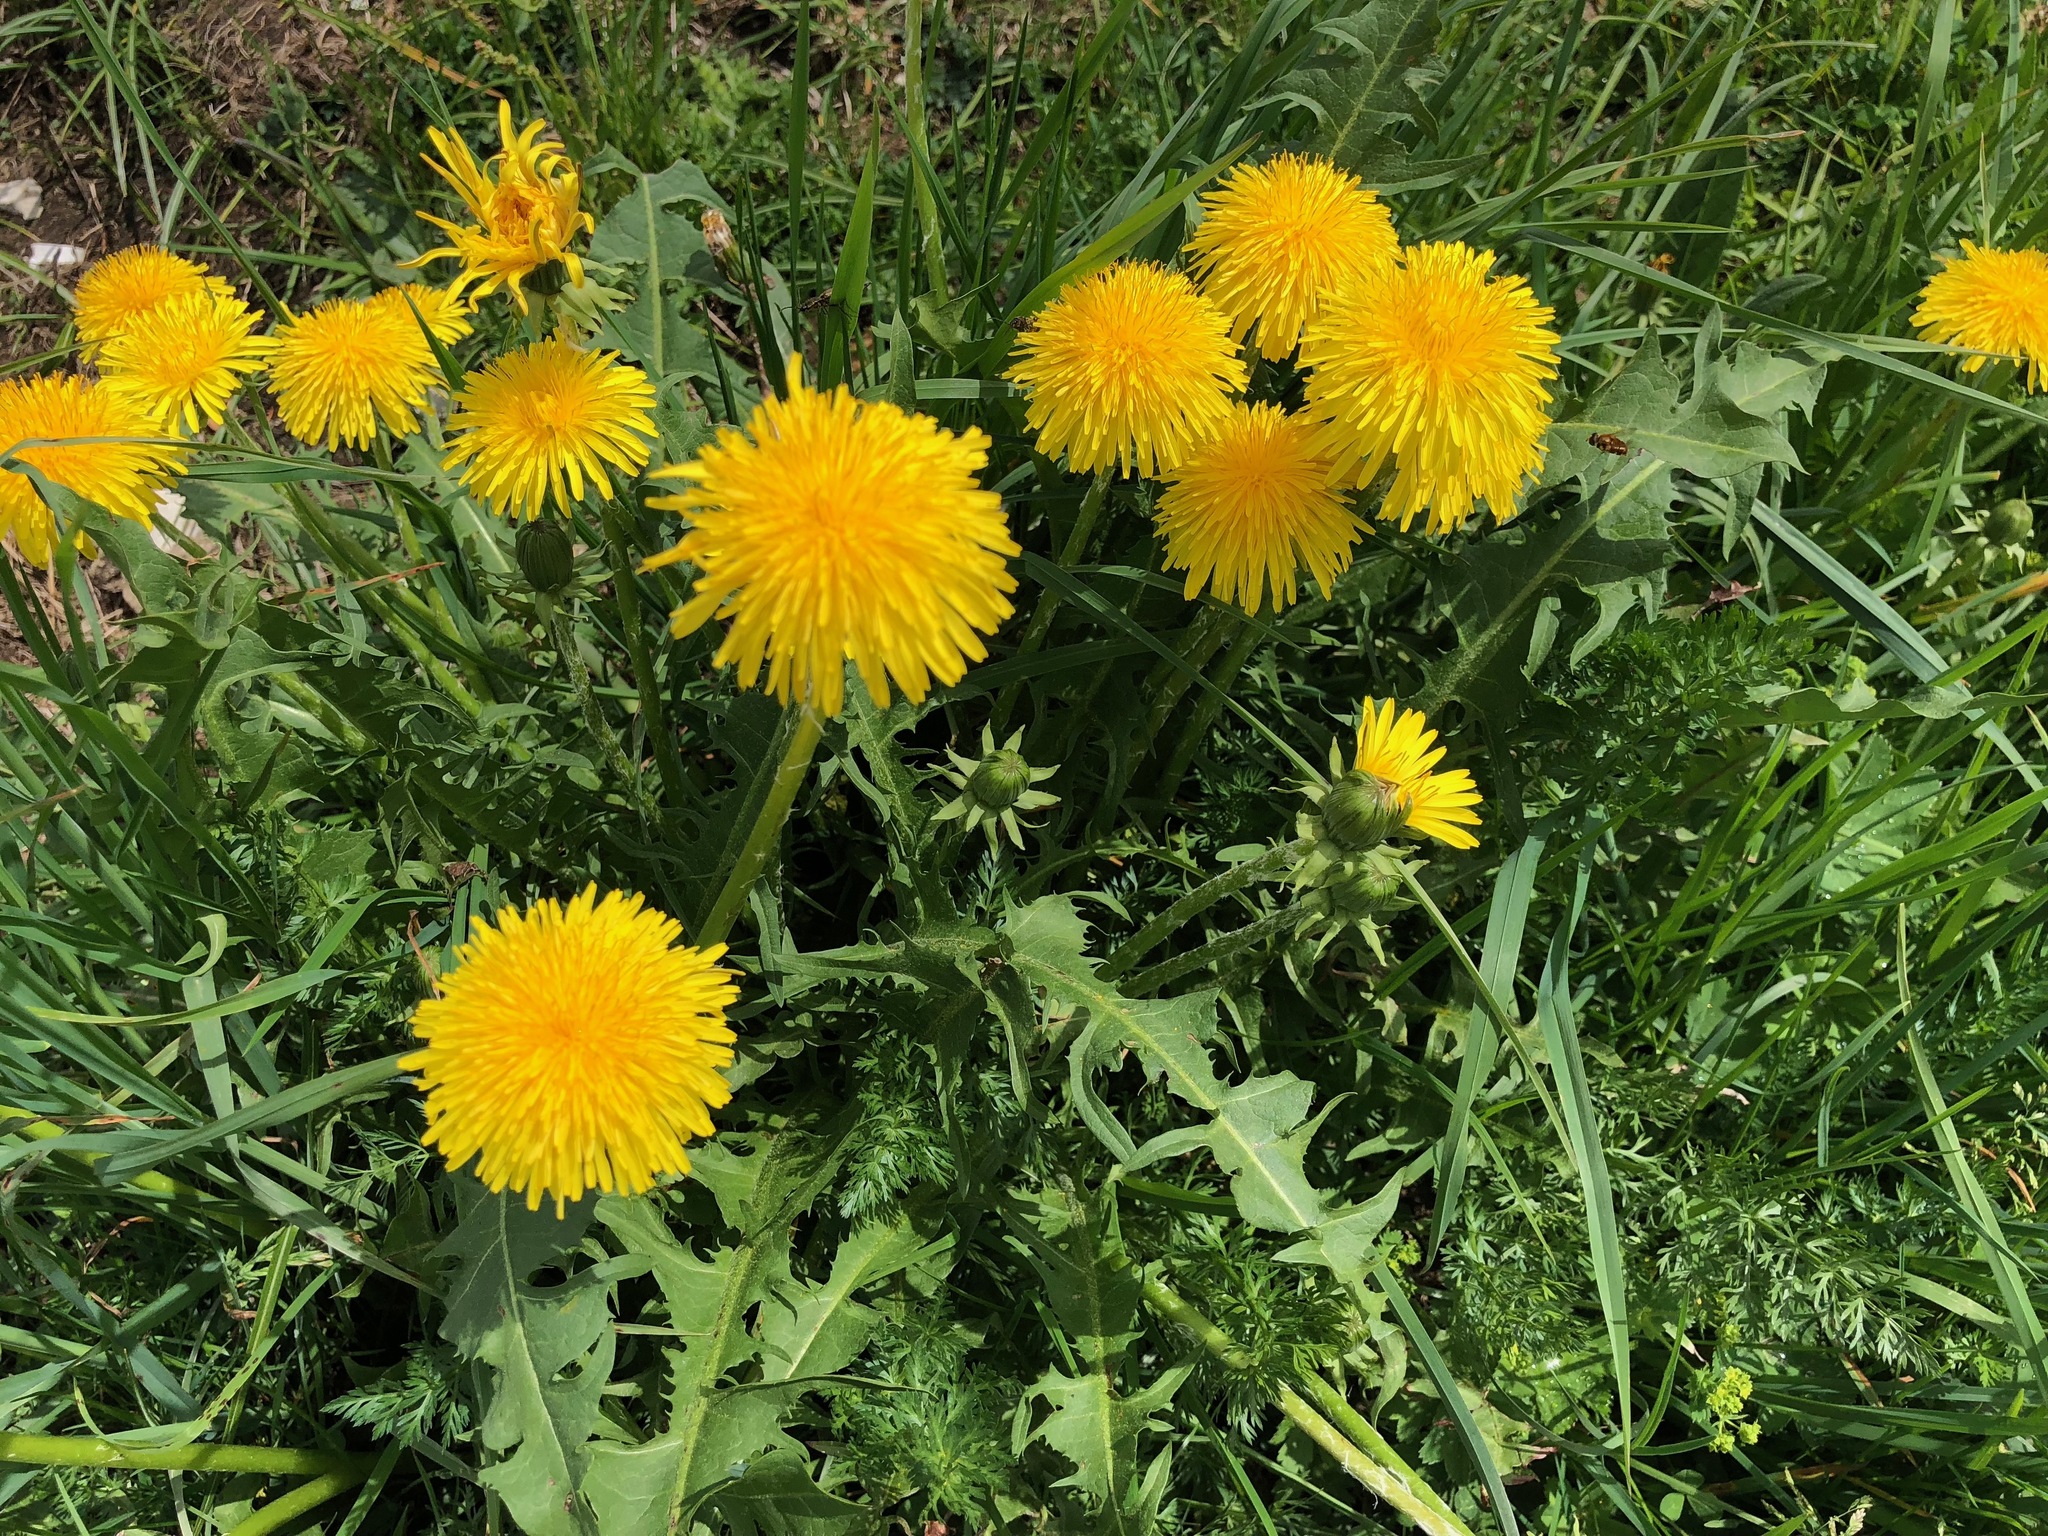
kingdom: Plantae
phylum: Tracheophyta
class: Magnoliopsida
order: Asterales
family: Asteraceae
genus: Taraxacum
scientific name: Taraxacum officinale
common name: Common dandelion
